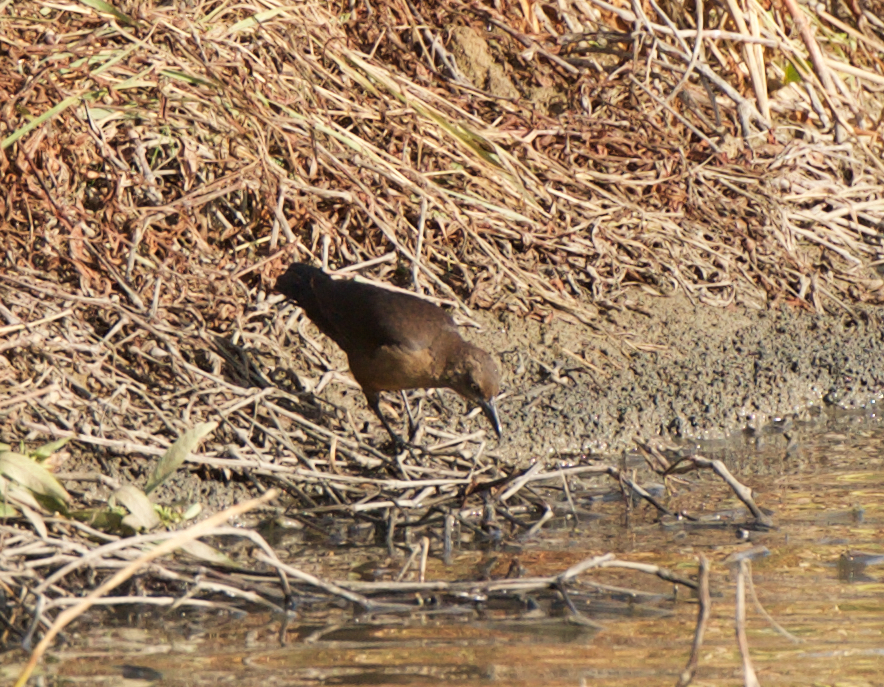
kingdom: Animalia
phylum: Chordata
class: Aves
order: Passeriformes
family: Icteridae
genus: Quiscalus
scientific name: Quiscalus mexicanus
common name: Great-tailed grackle
